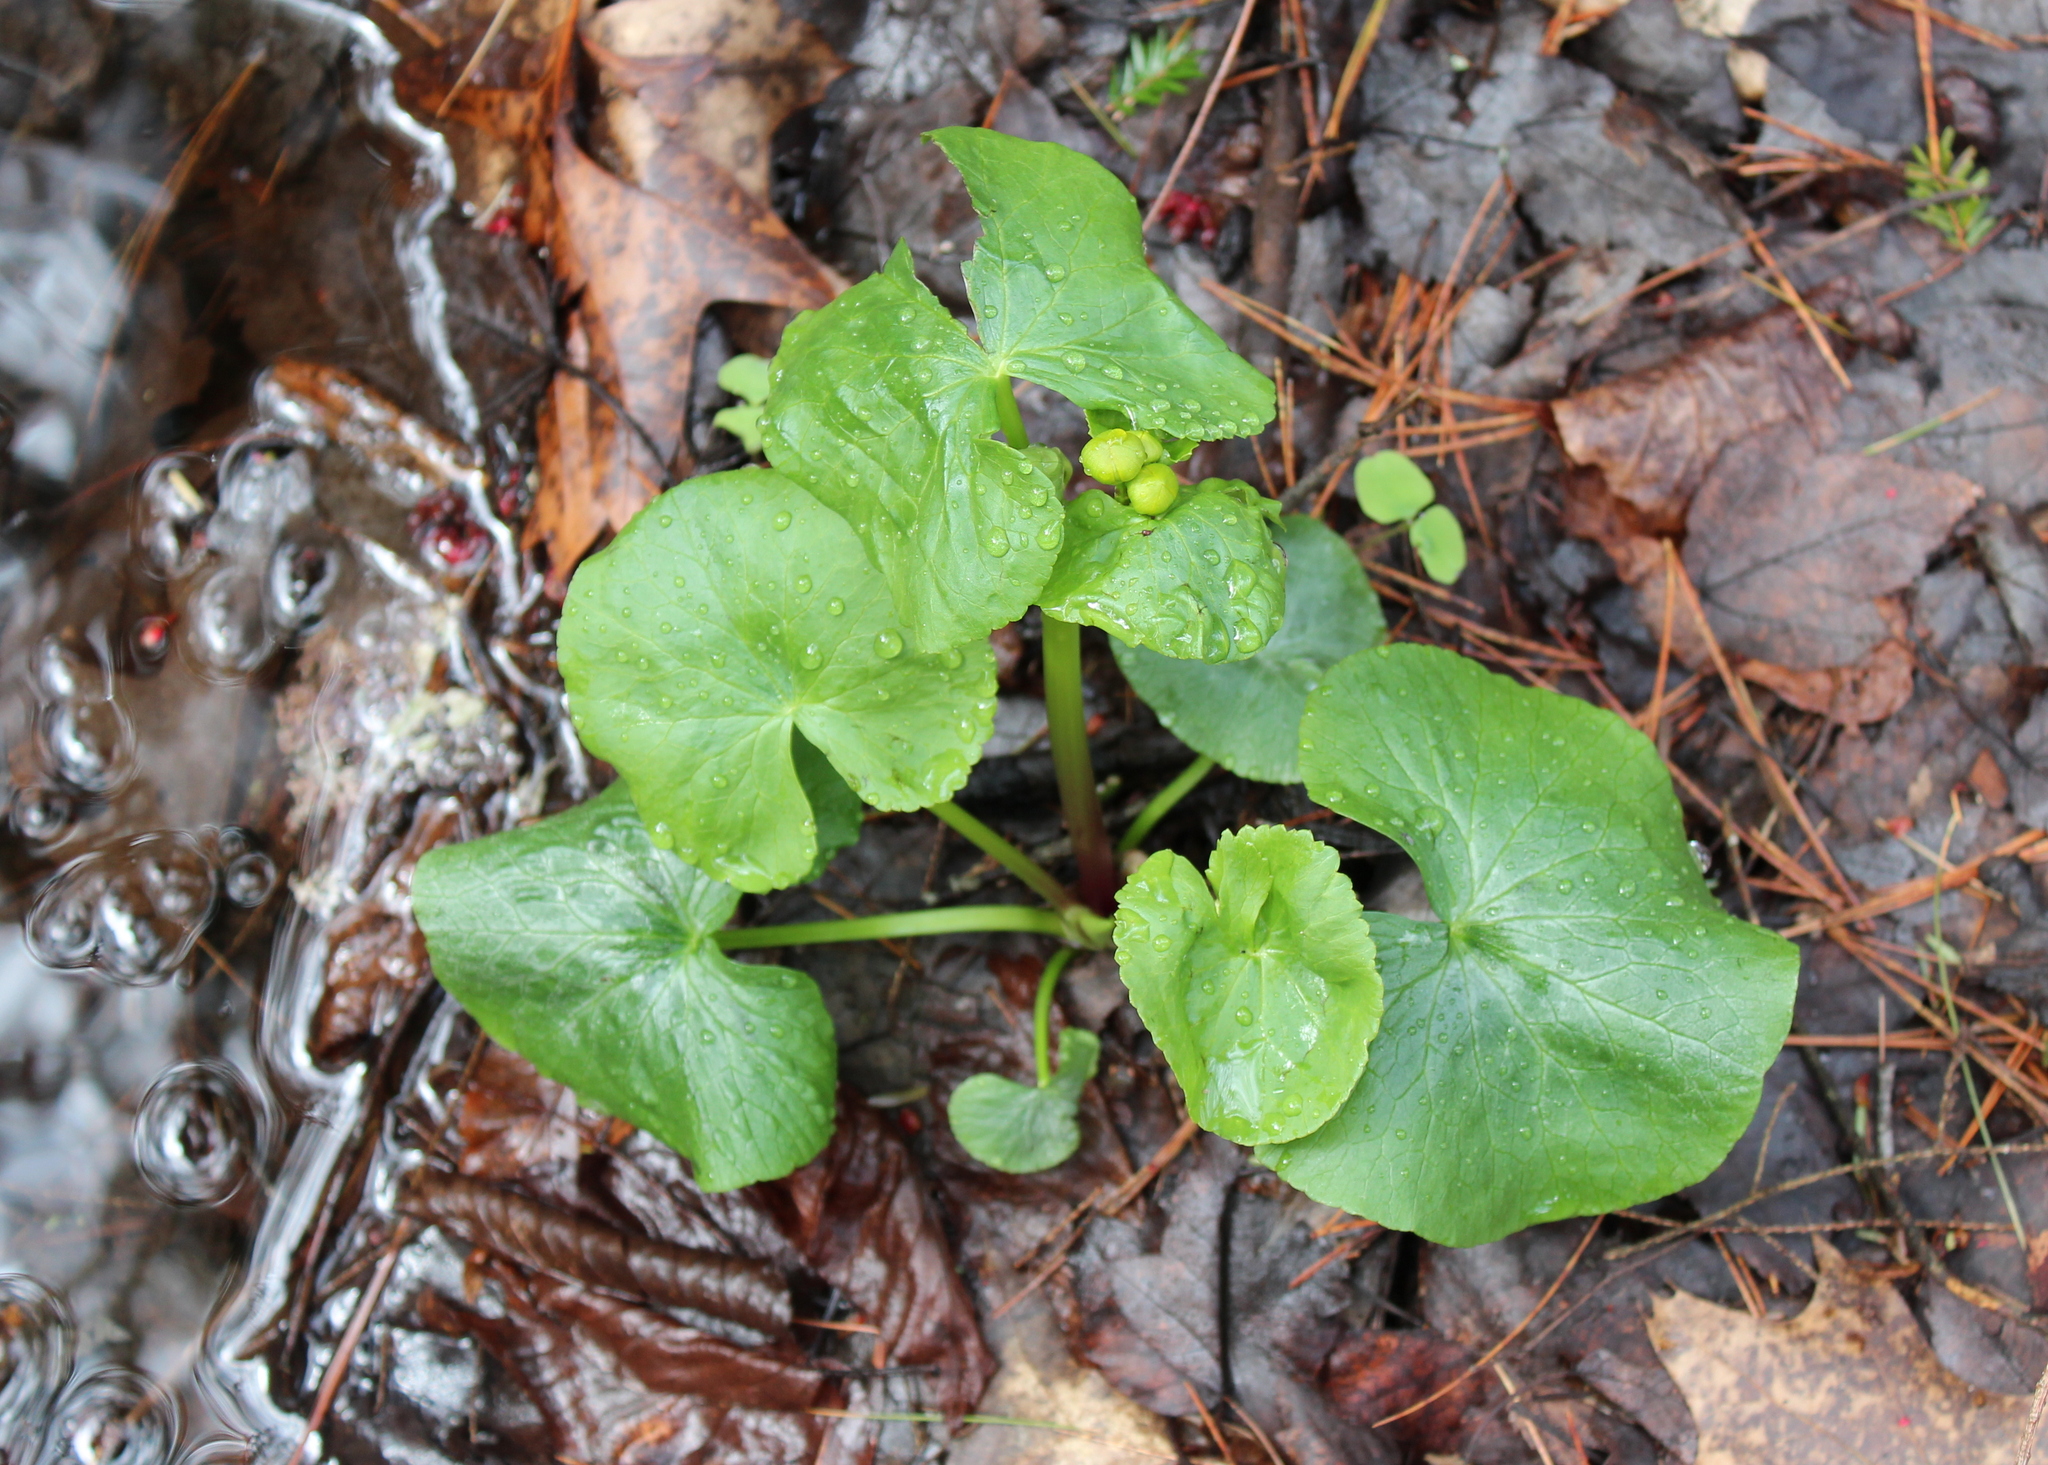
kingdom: Plantae
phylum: Tracheophyta
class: Magnoliopsida
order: Ranunculales
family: Ranunculaceae
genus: Caltha
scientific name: Caltha palustris
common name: Marsh marigold
